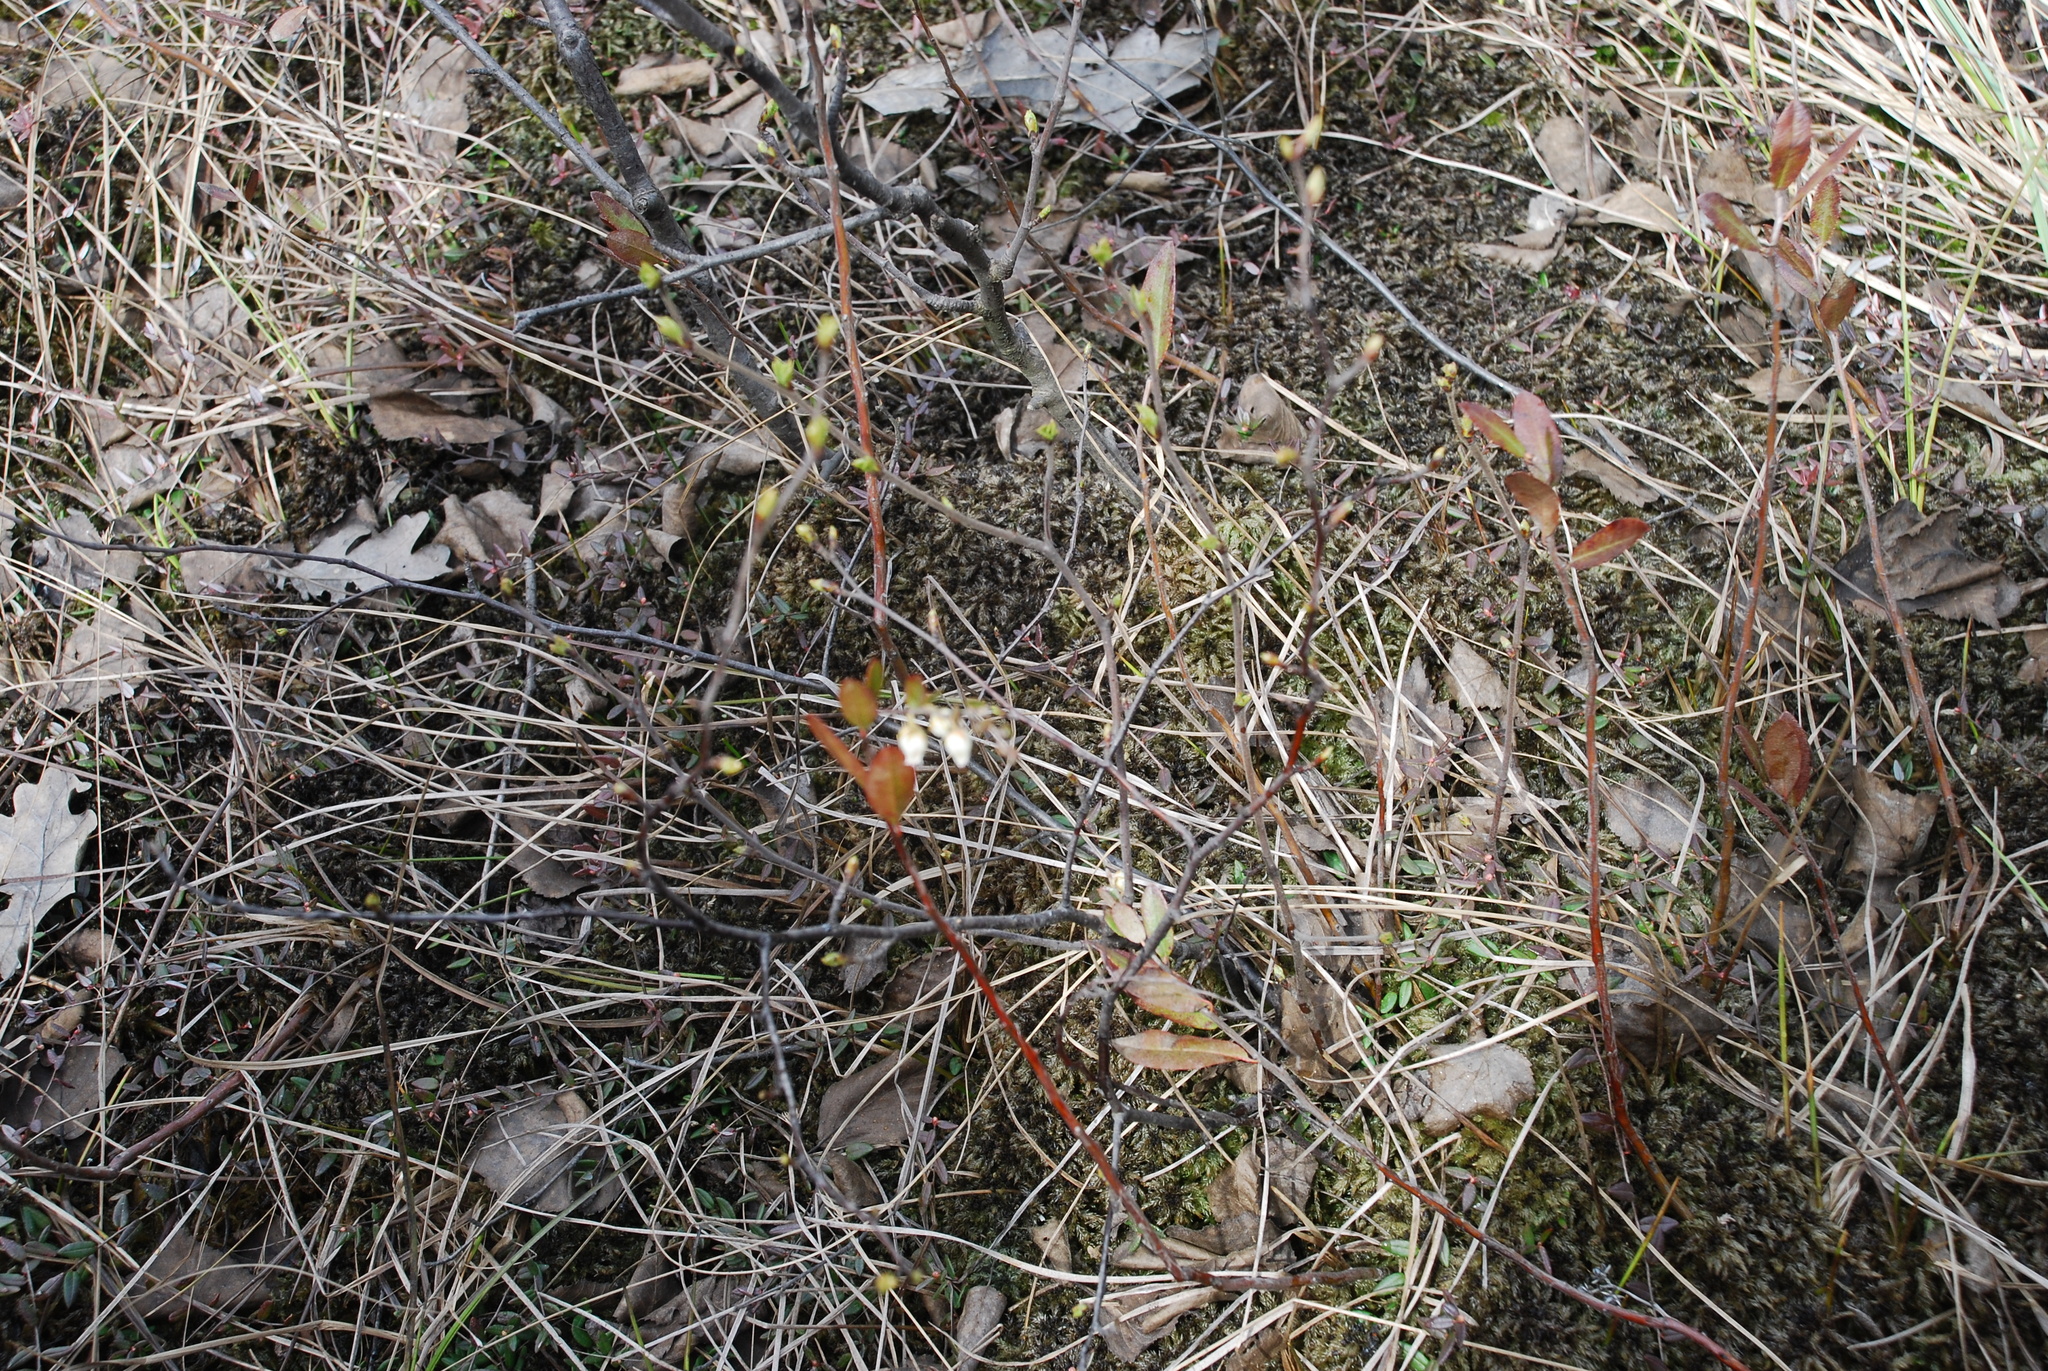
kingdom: Plantae
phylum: Tracheophyta
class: Magnoliopsida
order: Ericales
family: Ericaceae
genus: Chamaedaphne
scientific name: Chamaedaphne calyculata
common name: Leatherleaf
